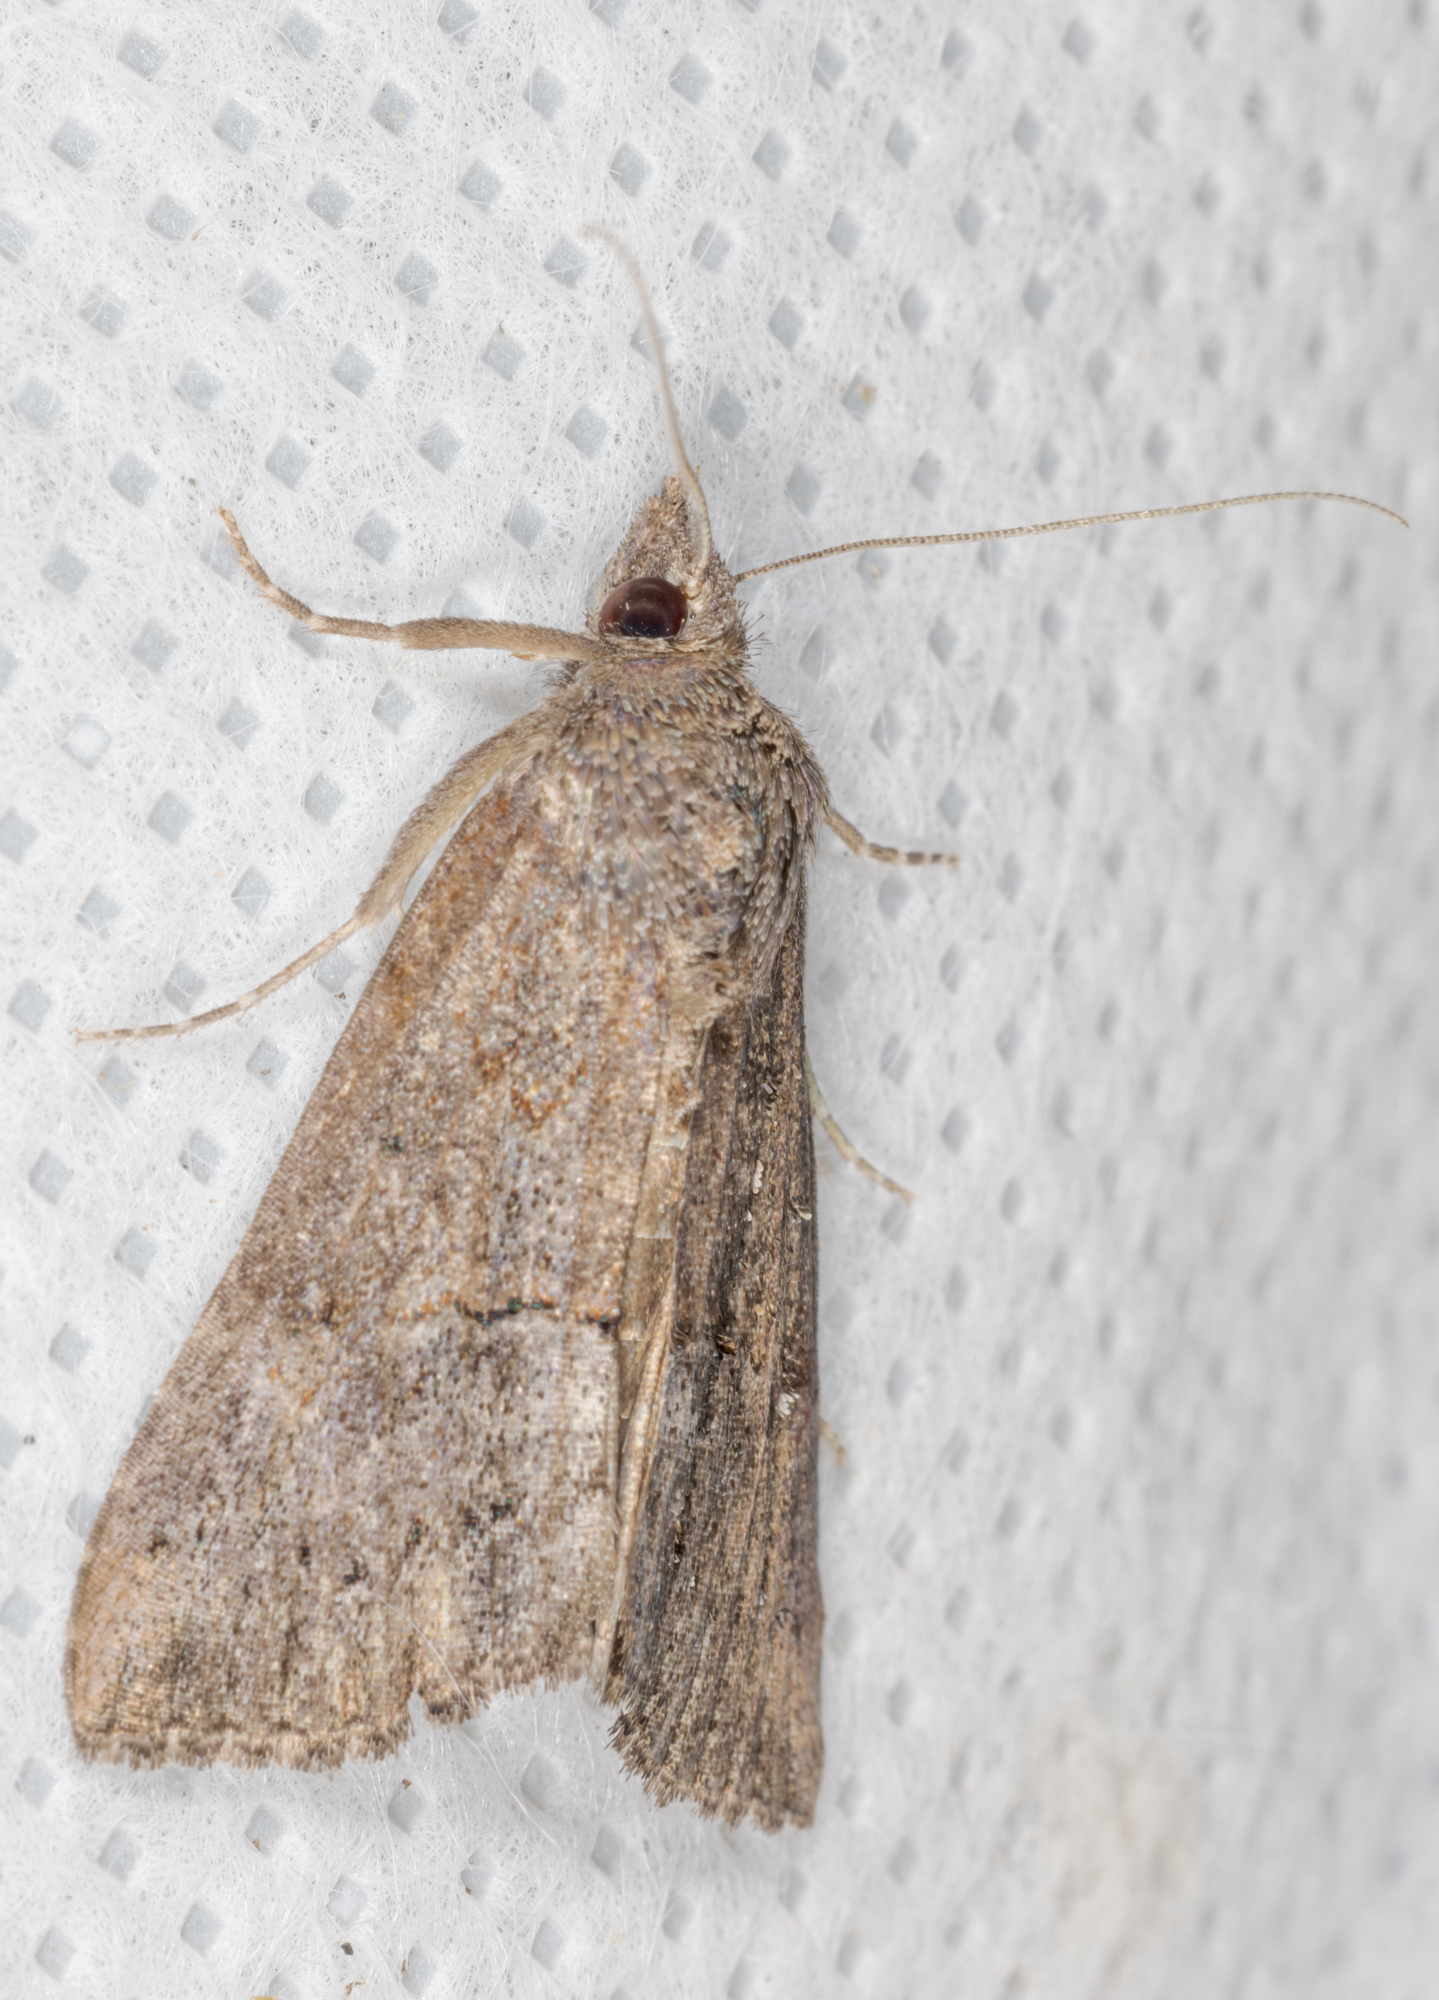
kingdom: Animalia
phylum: Arthropoda
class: Insecta
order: Lepidoptera
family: Erebidae
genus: Hypena
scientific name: Hypena scabra
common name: Green cloverworm
